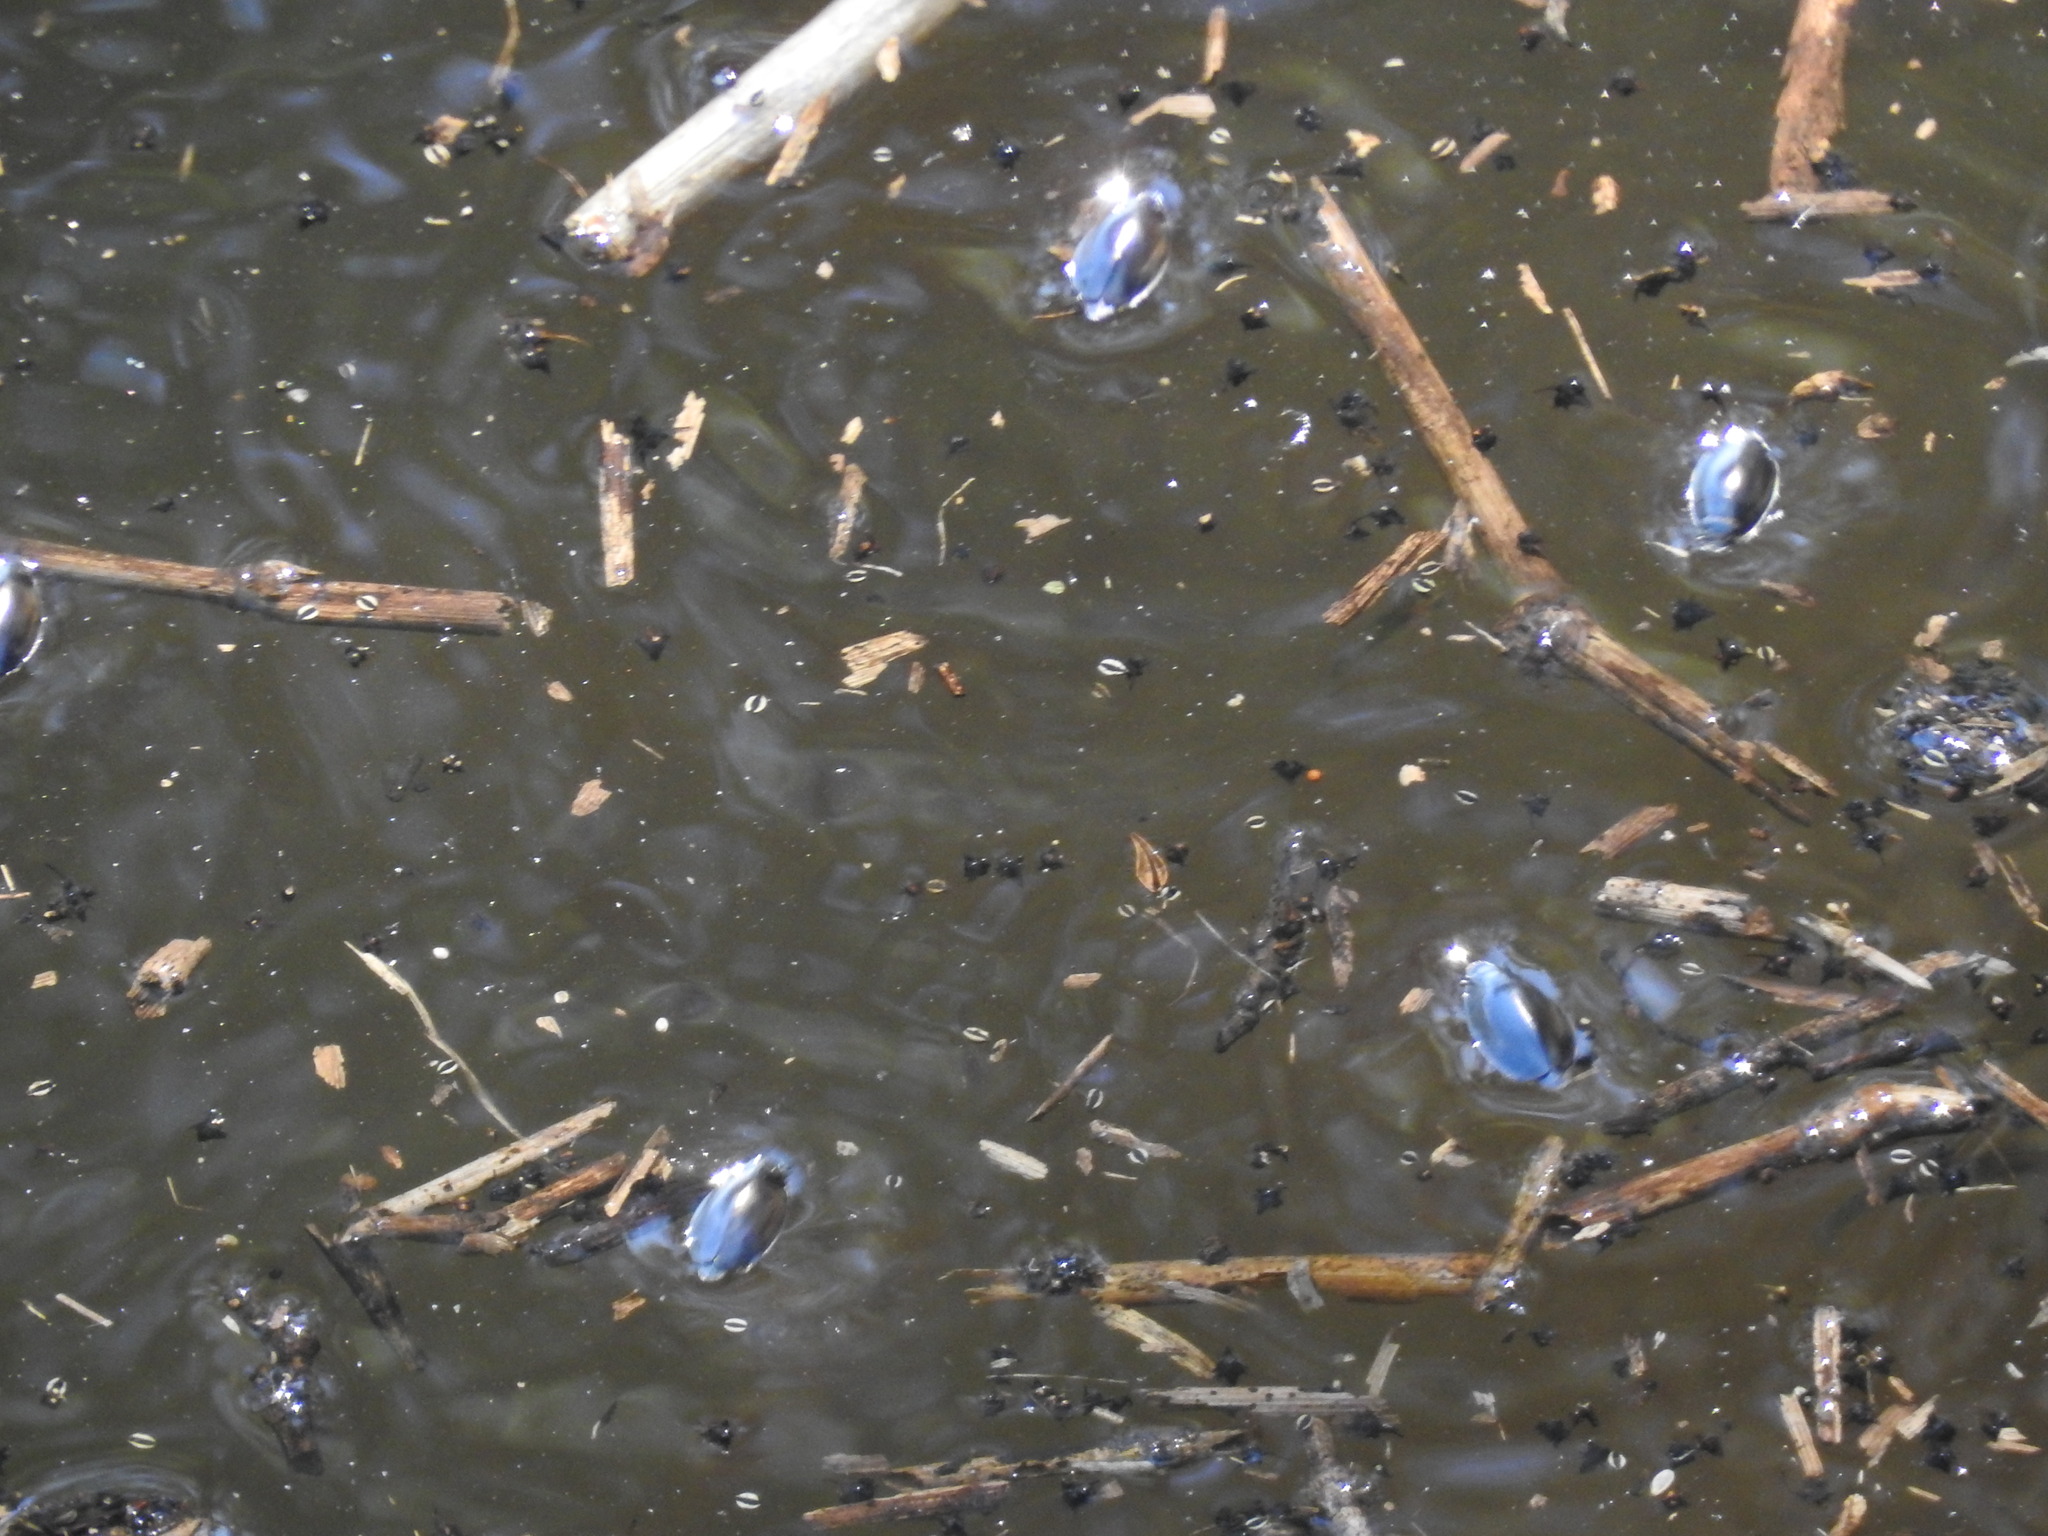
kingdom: Animalia
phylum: Arthropoda
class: Insecta
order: Coleoptera
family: Gyrinidae
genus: Dineutus
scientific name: Dineutus
